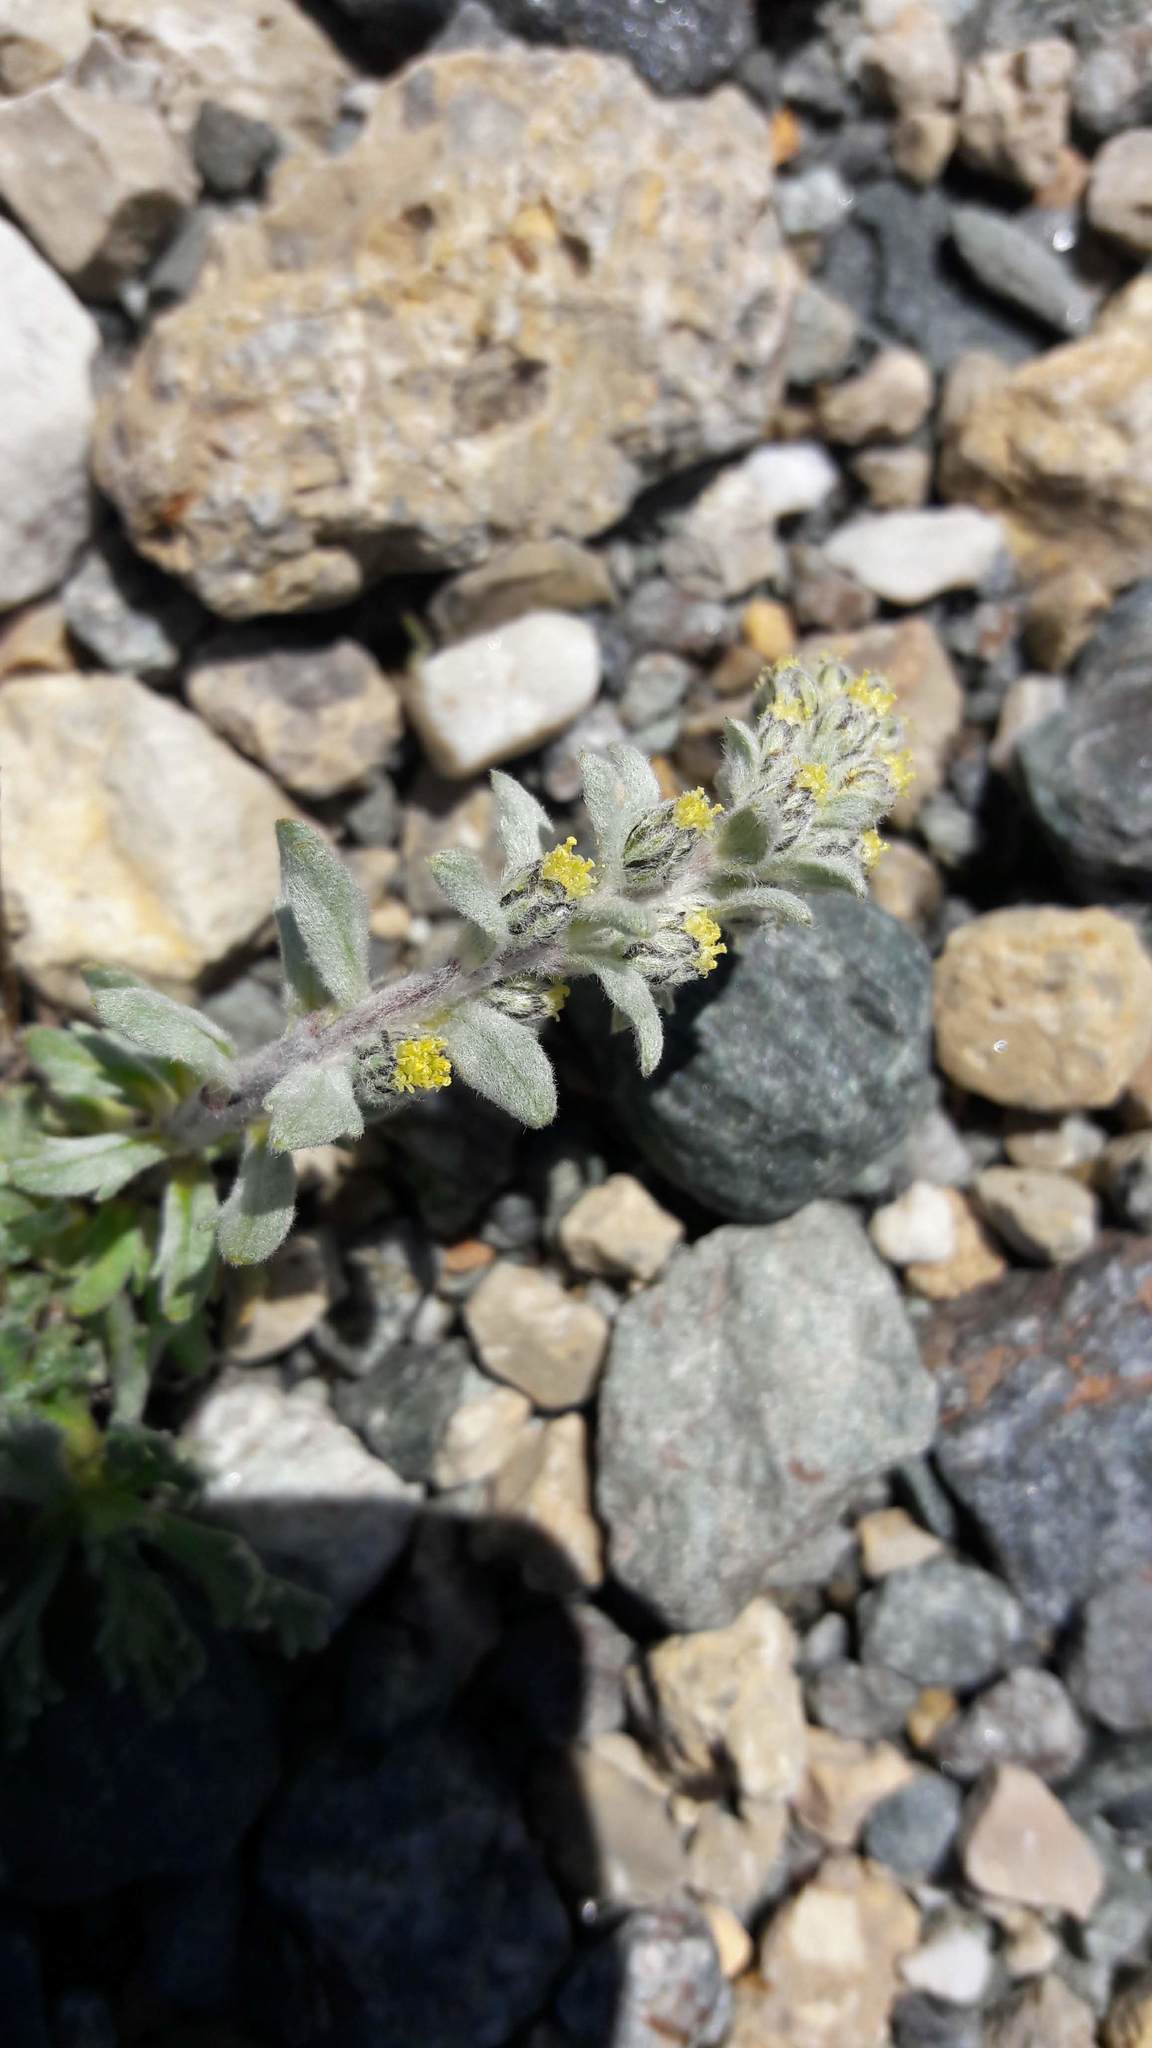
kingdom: Plantae
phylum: Tracheophyta
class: Magnoliopsida
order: Asterales
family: Asteraceae
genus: Artemisia
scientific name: Artemisia genipi
